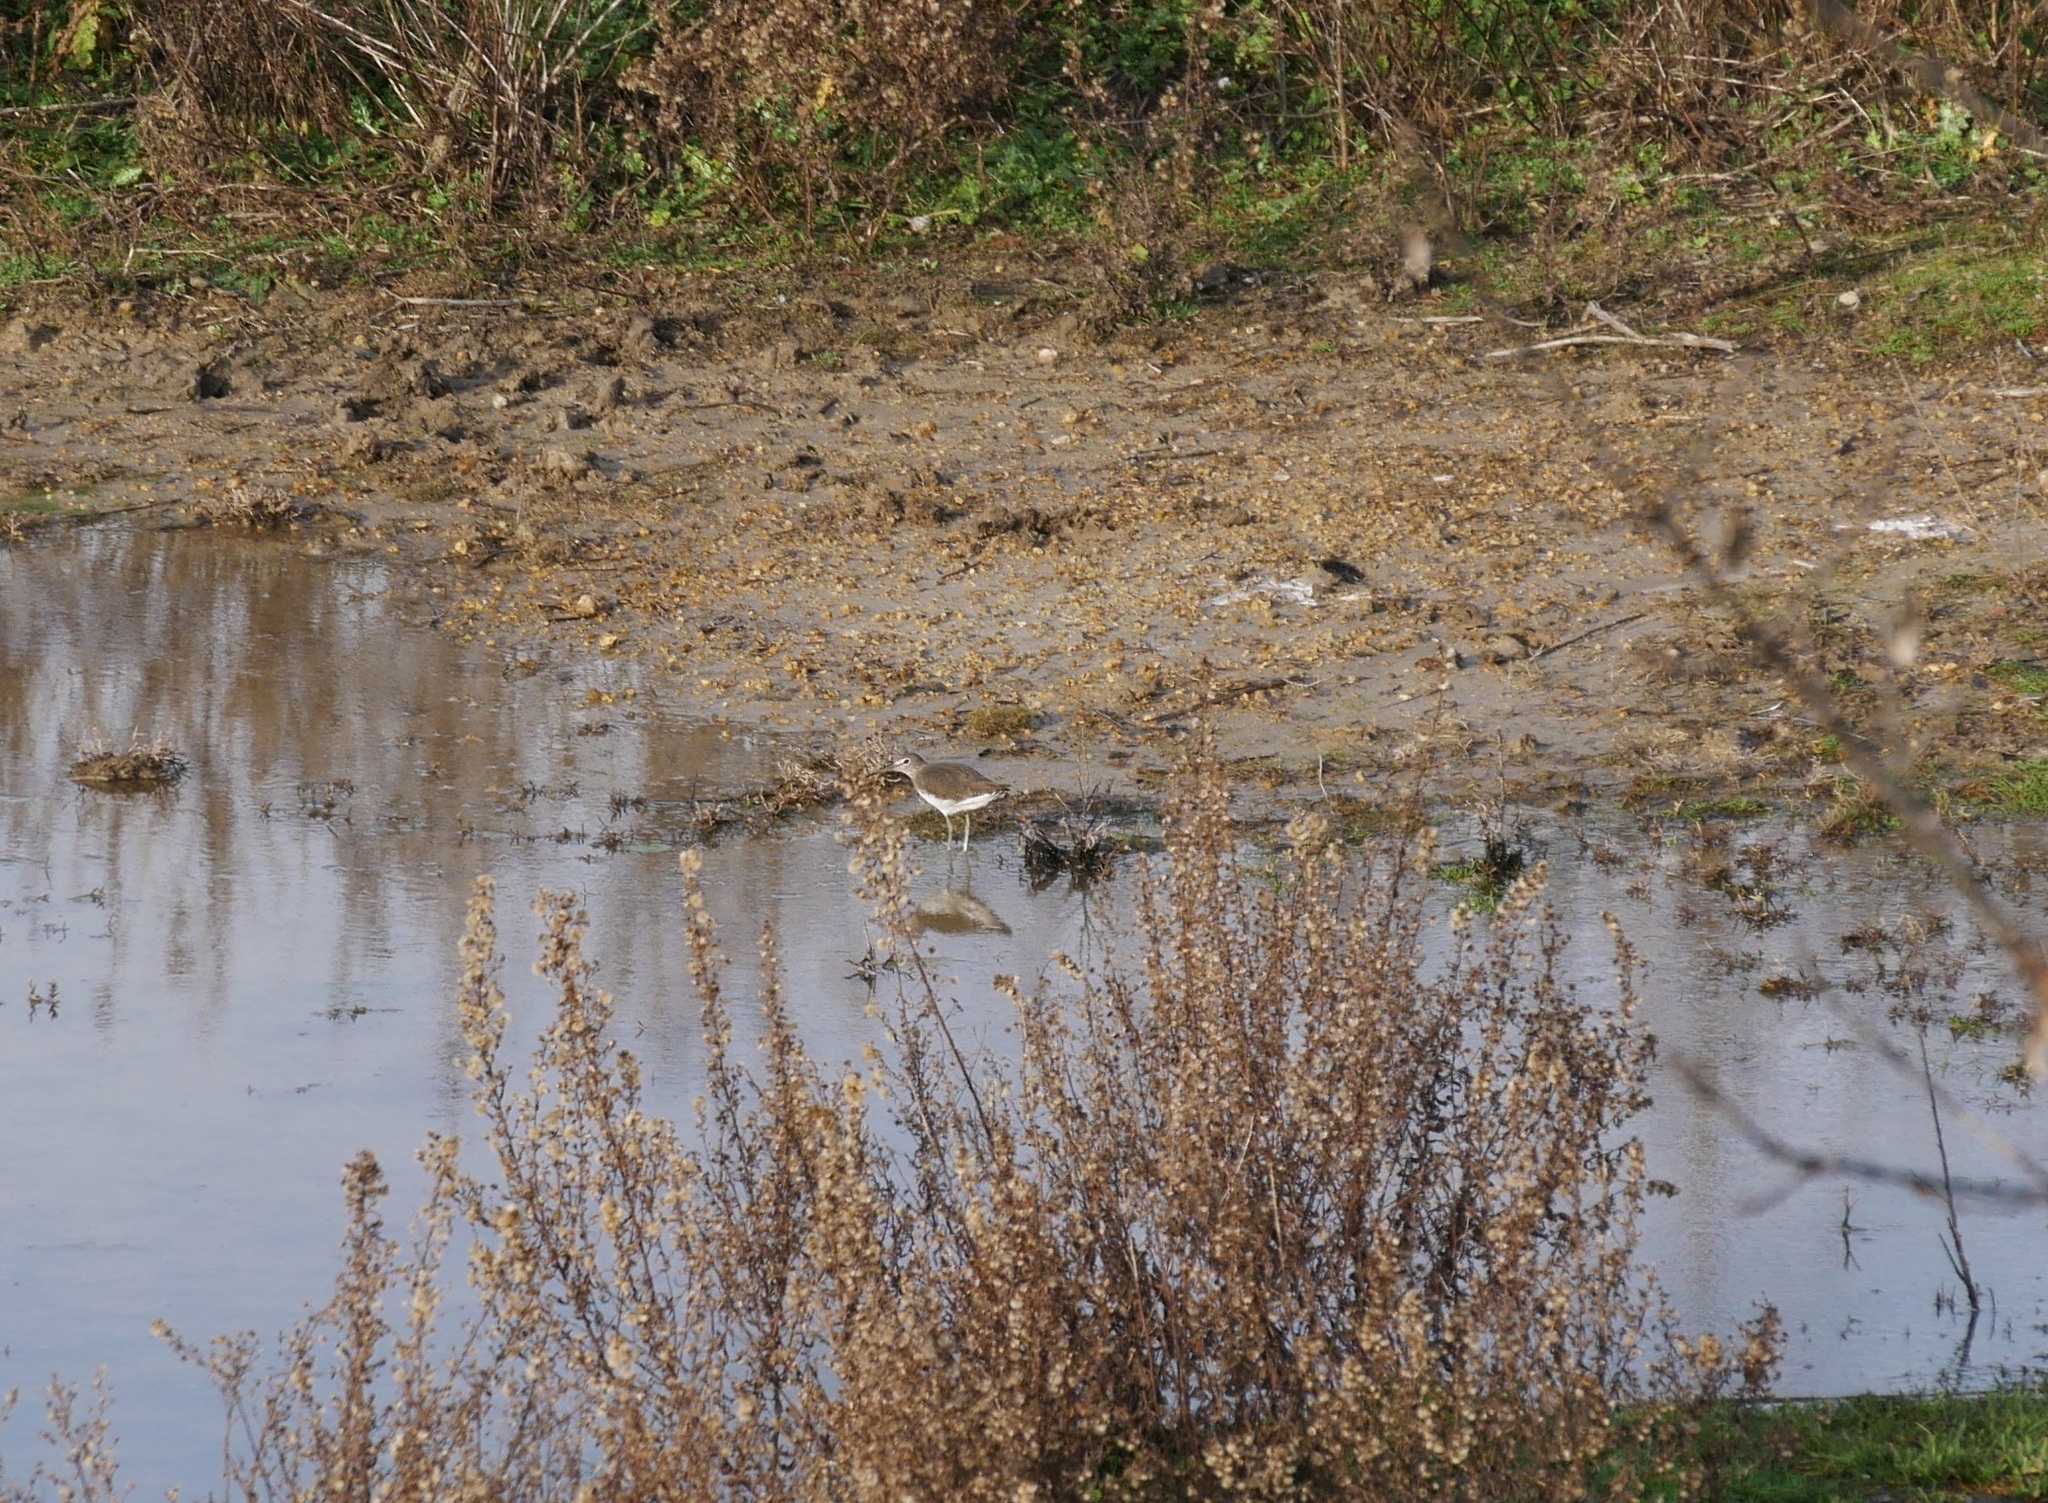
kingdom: Animalia
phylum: Chordata
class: Aves
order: Charadriiformes
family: Scolopacidae
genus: Tringa
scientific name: Tringa ochropus
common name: Green sandpiper
